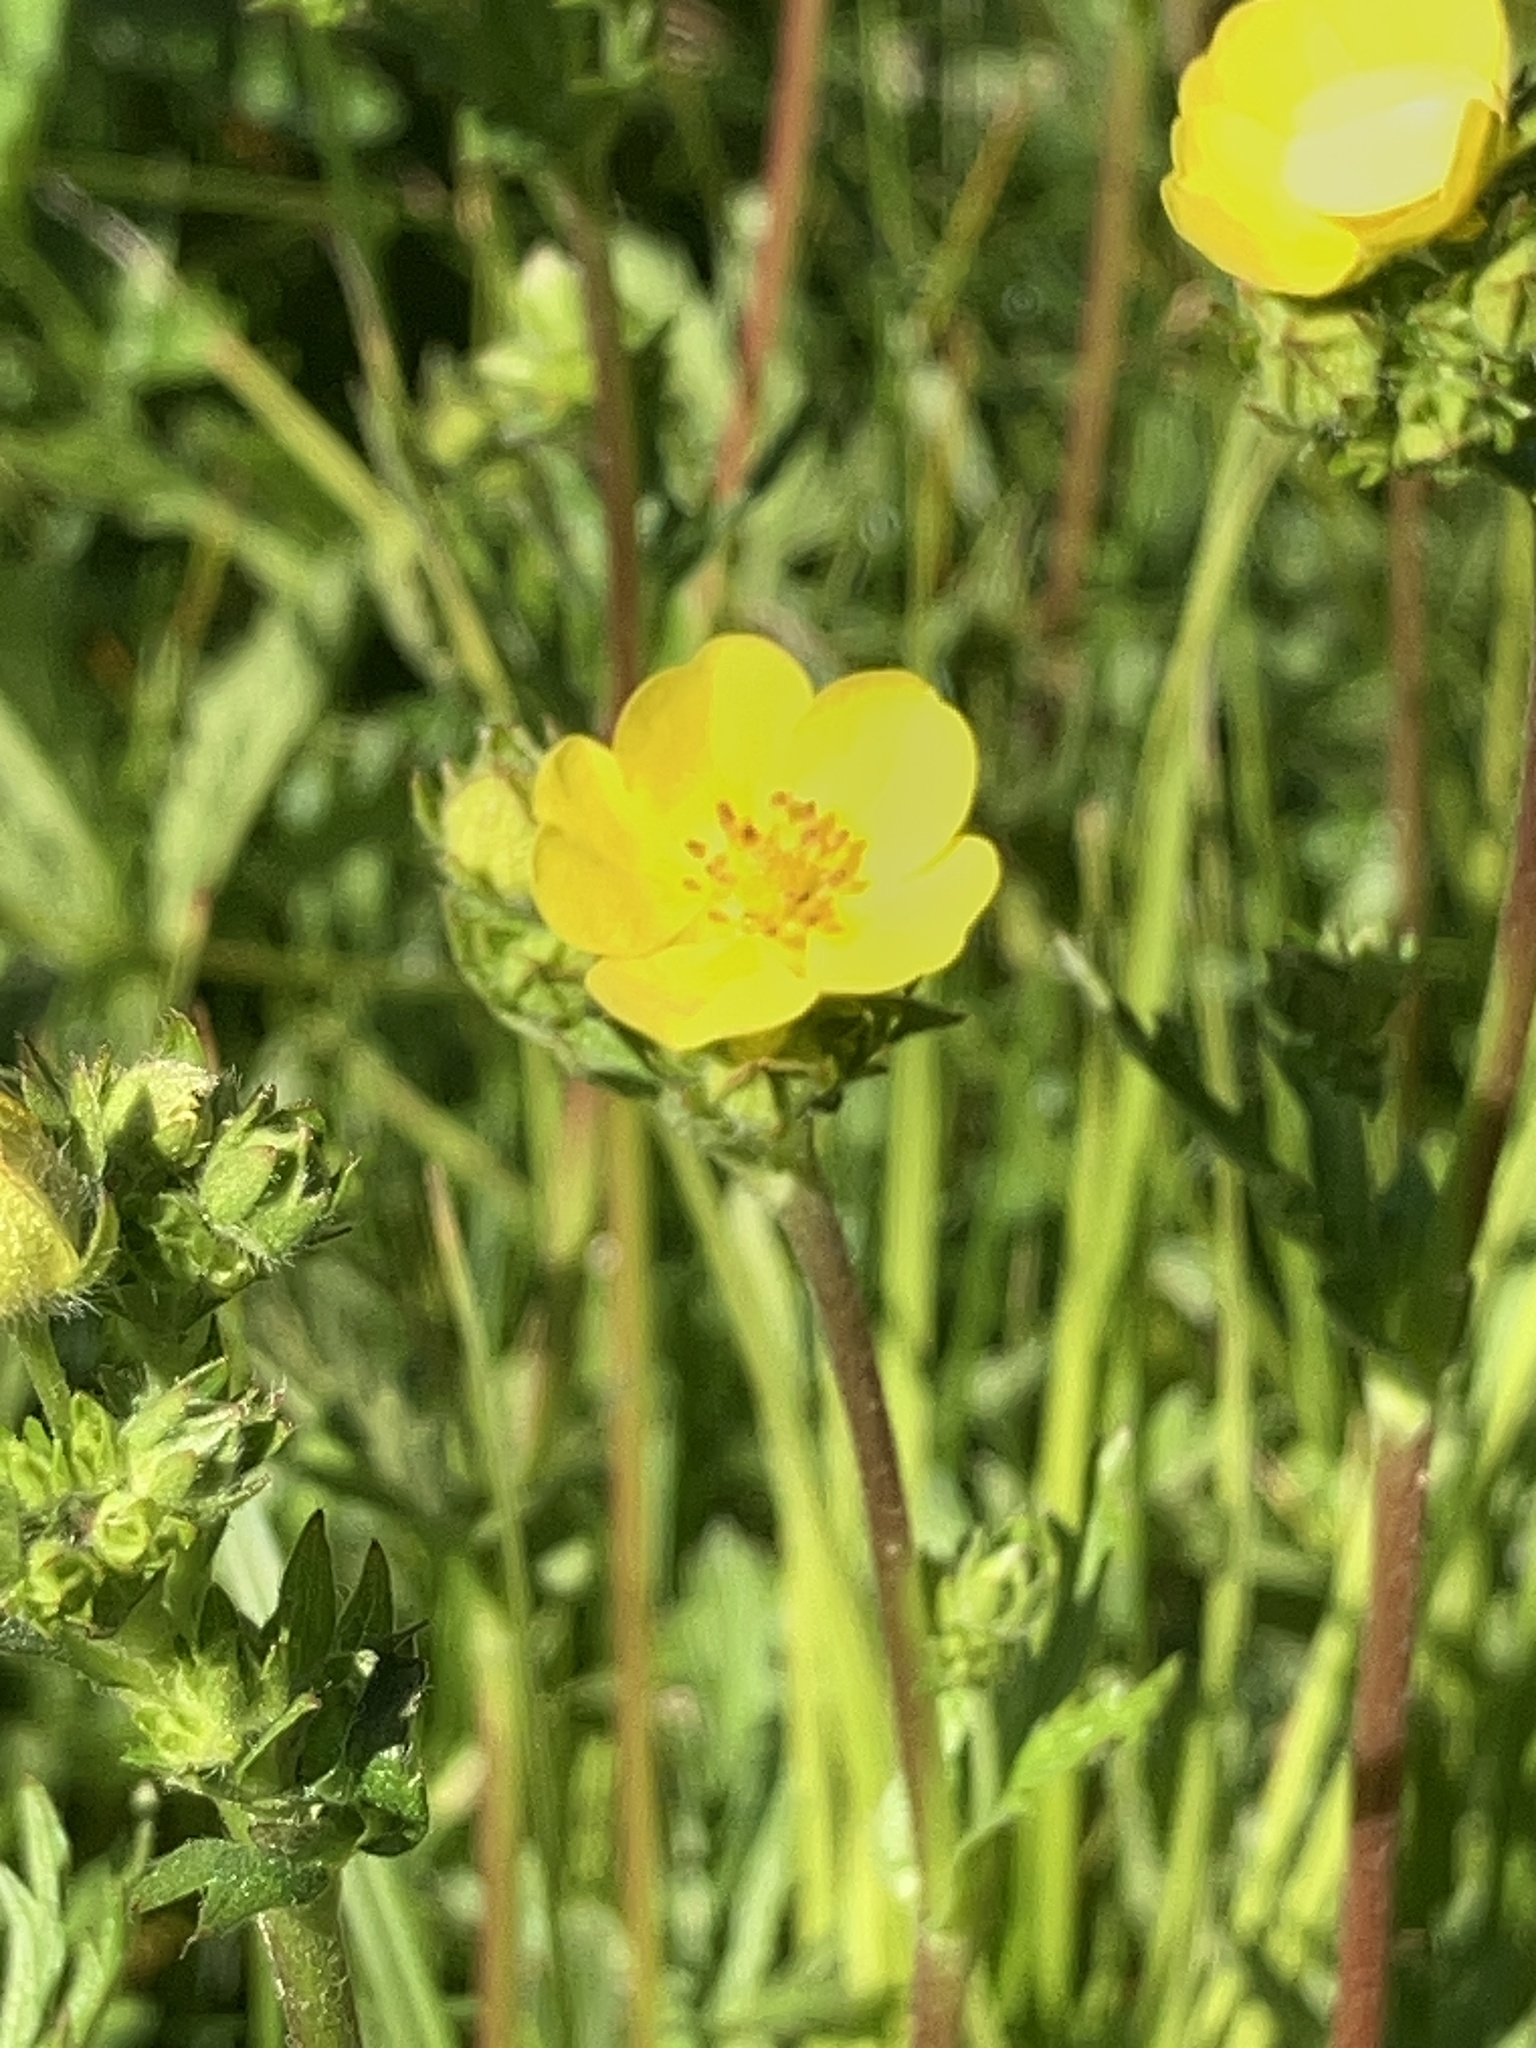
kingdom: Plantae
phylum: Tracheophyta
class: Magnoliopsida
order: Rosales
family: Rosaceae
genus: Potentilla
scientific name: Potentilla gracilis
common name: Graceful cinquefoil
